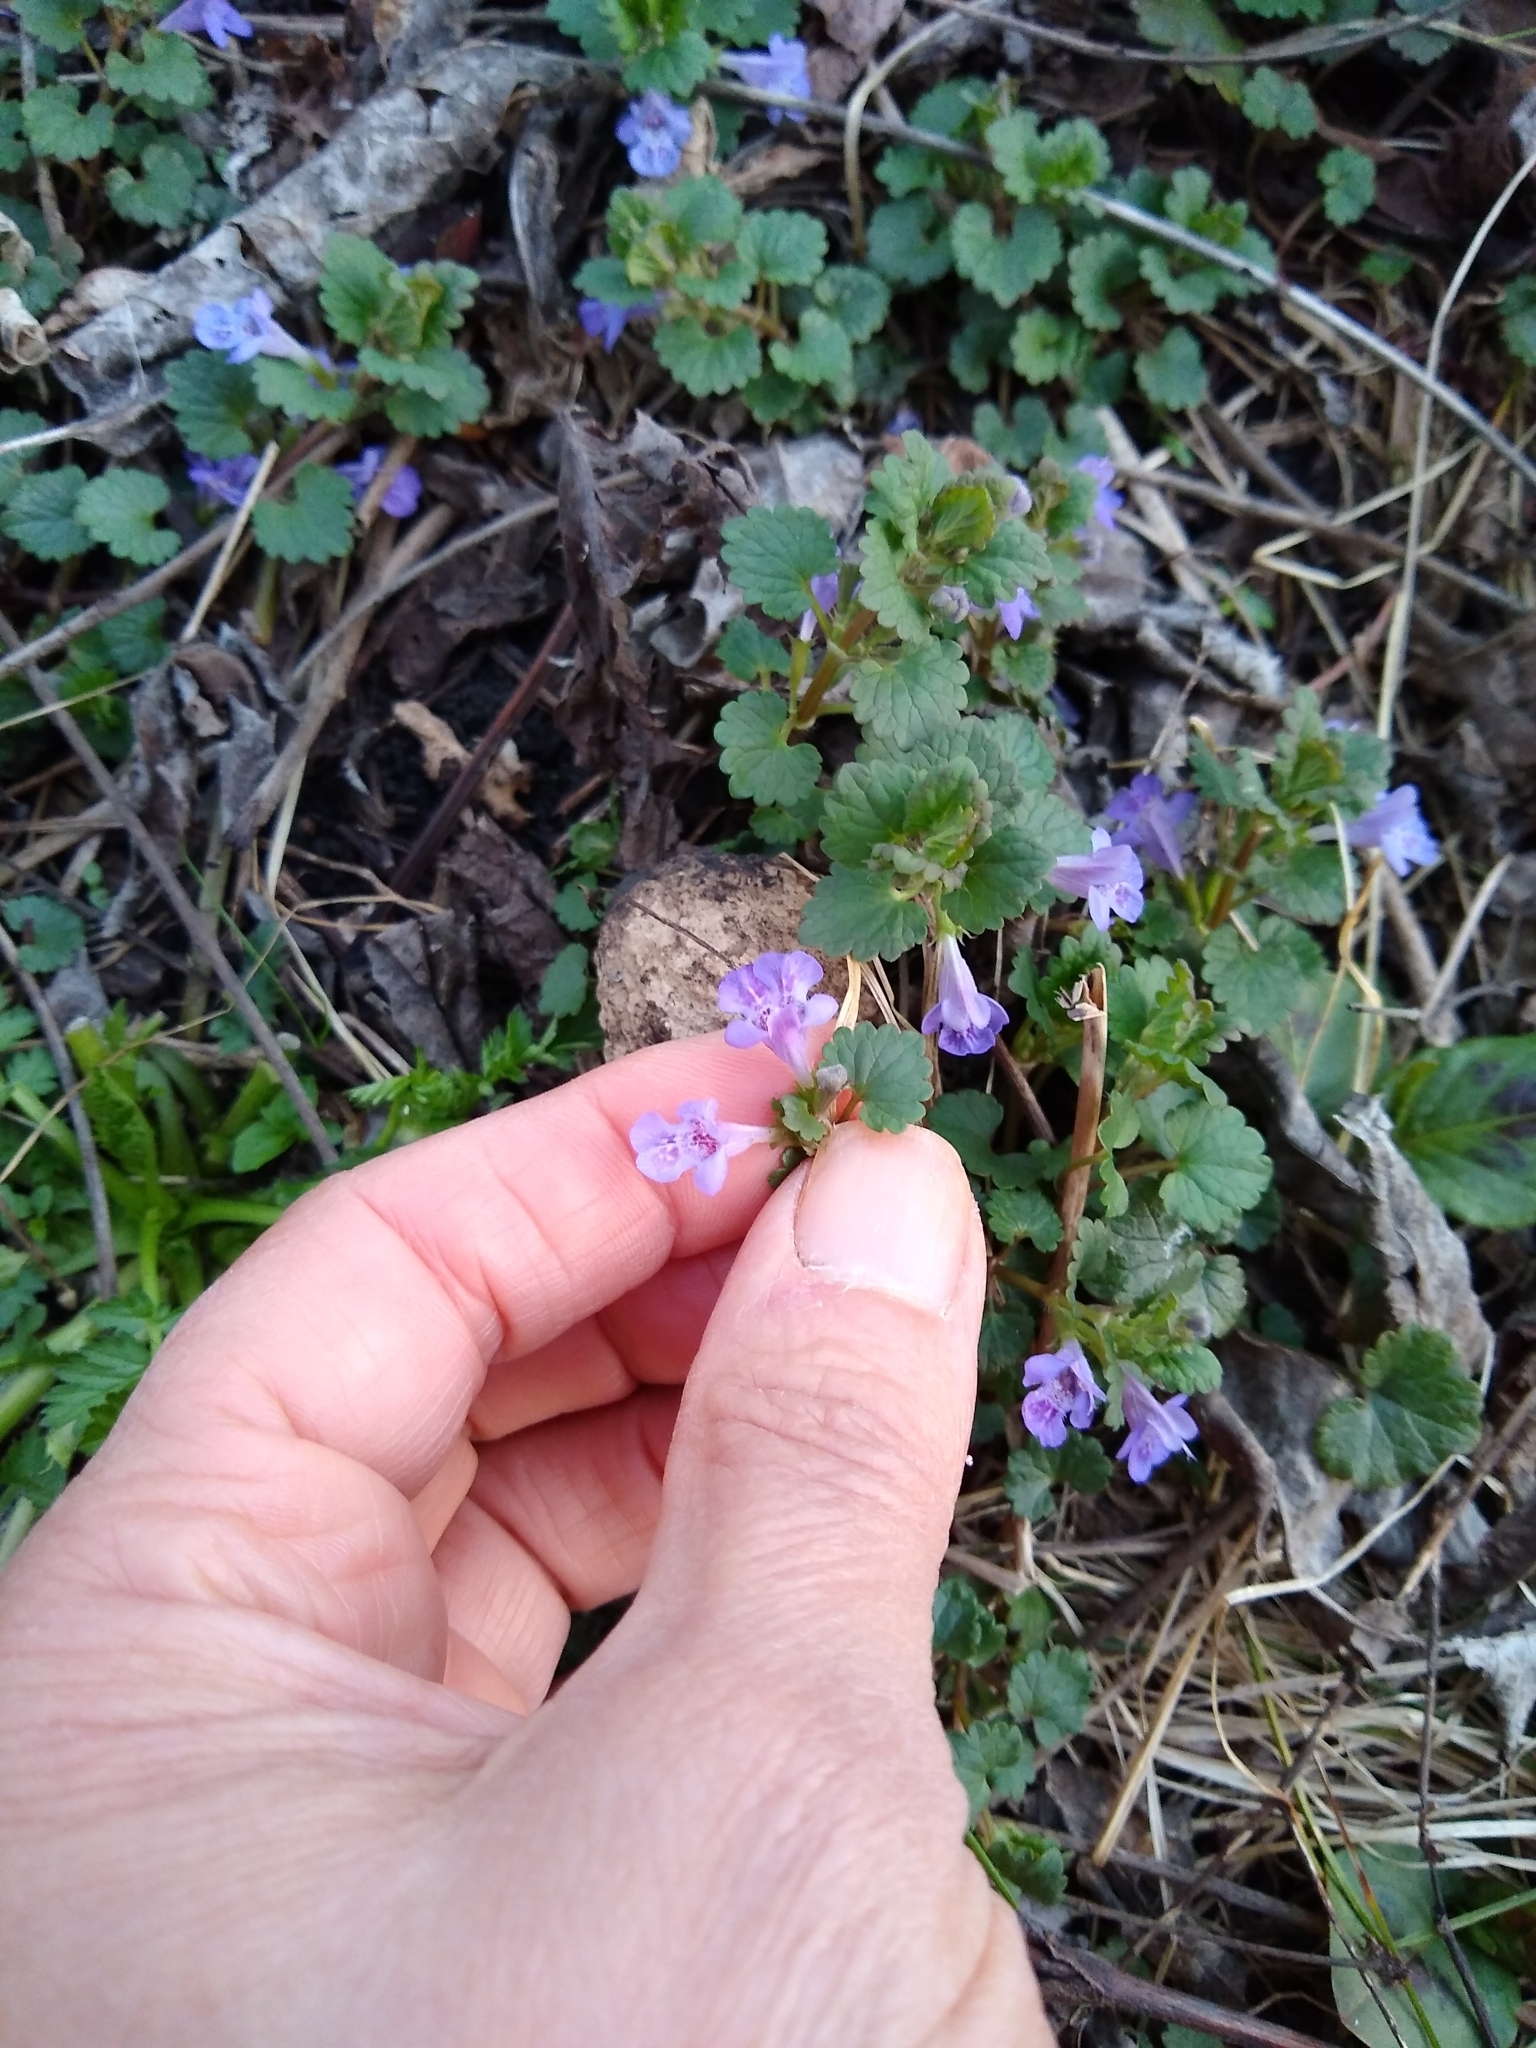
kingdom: Plantae
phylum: Tracheophyta
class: Magnoliopsida
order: Lamiales
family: Lamiaceae
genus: Glechoma
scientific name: Glechoma hederacea
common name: Ground ivy
